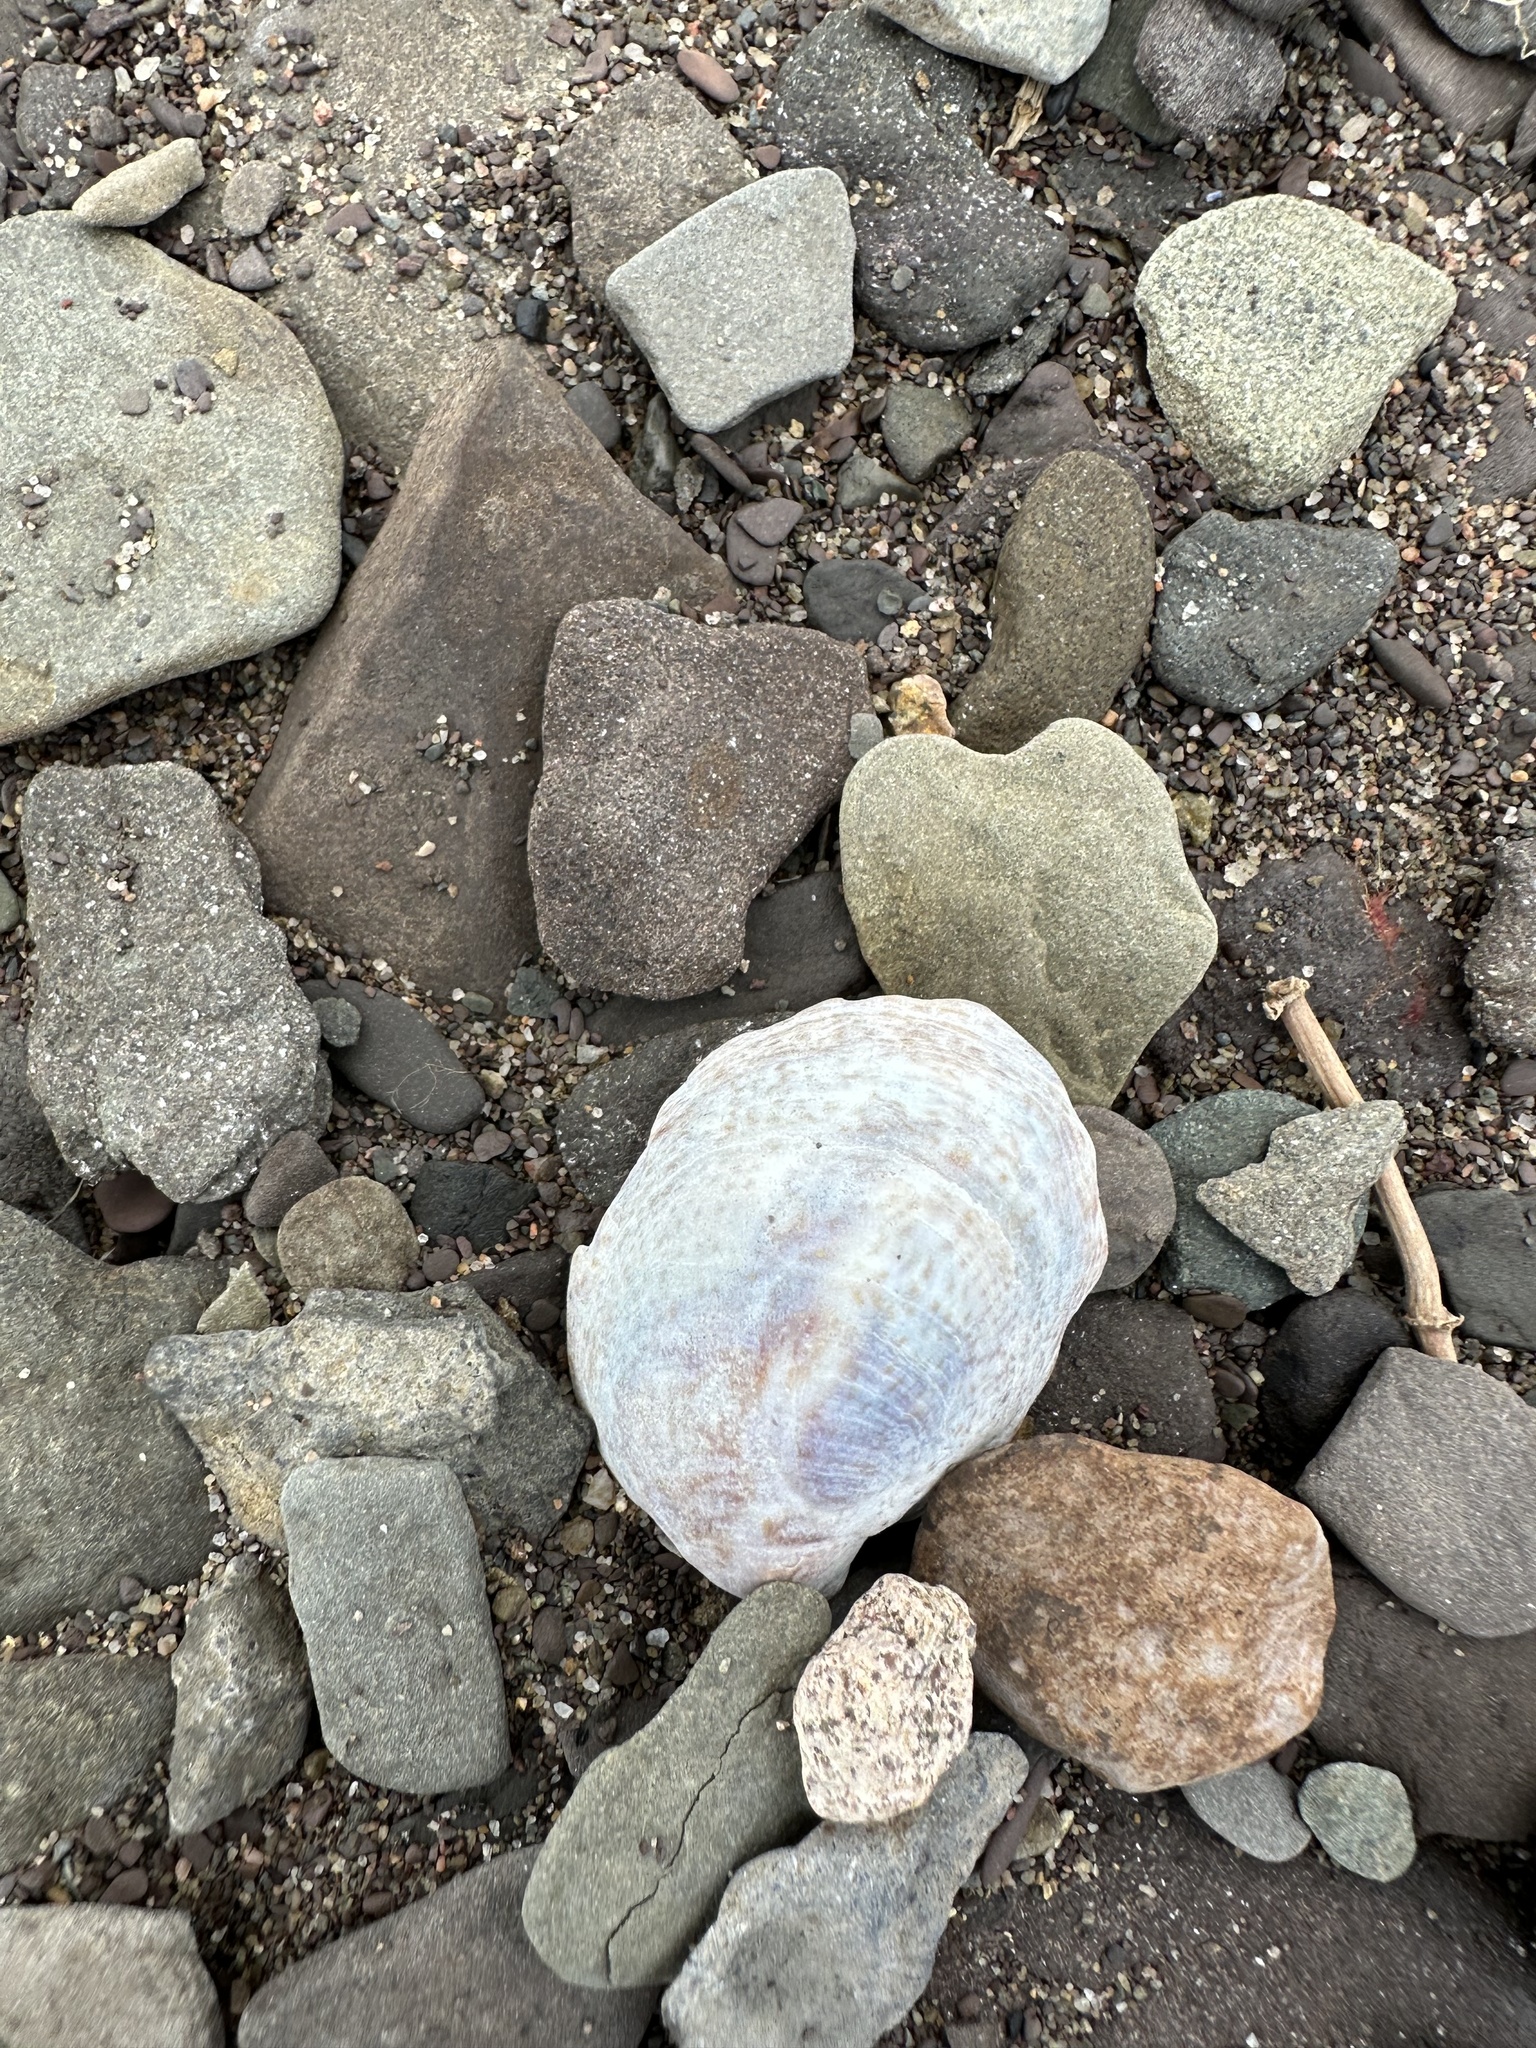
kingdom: Animalia
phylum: Mollusca
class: Gastropoda
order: Littorinimorpha
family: Calyptraeidae
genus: Crepidula
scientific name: Crepidula fornicata
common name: Slipper limpet
